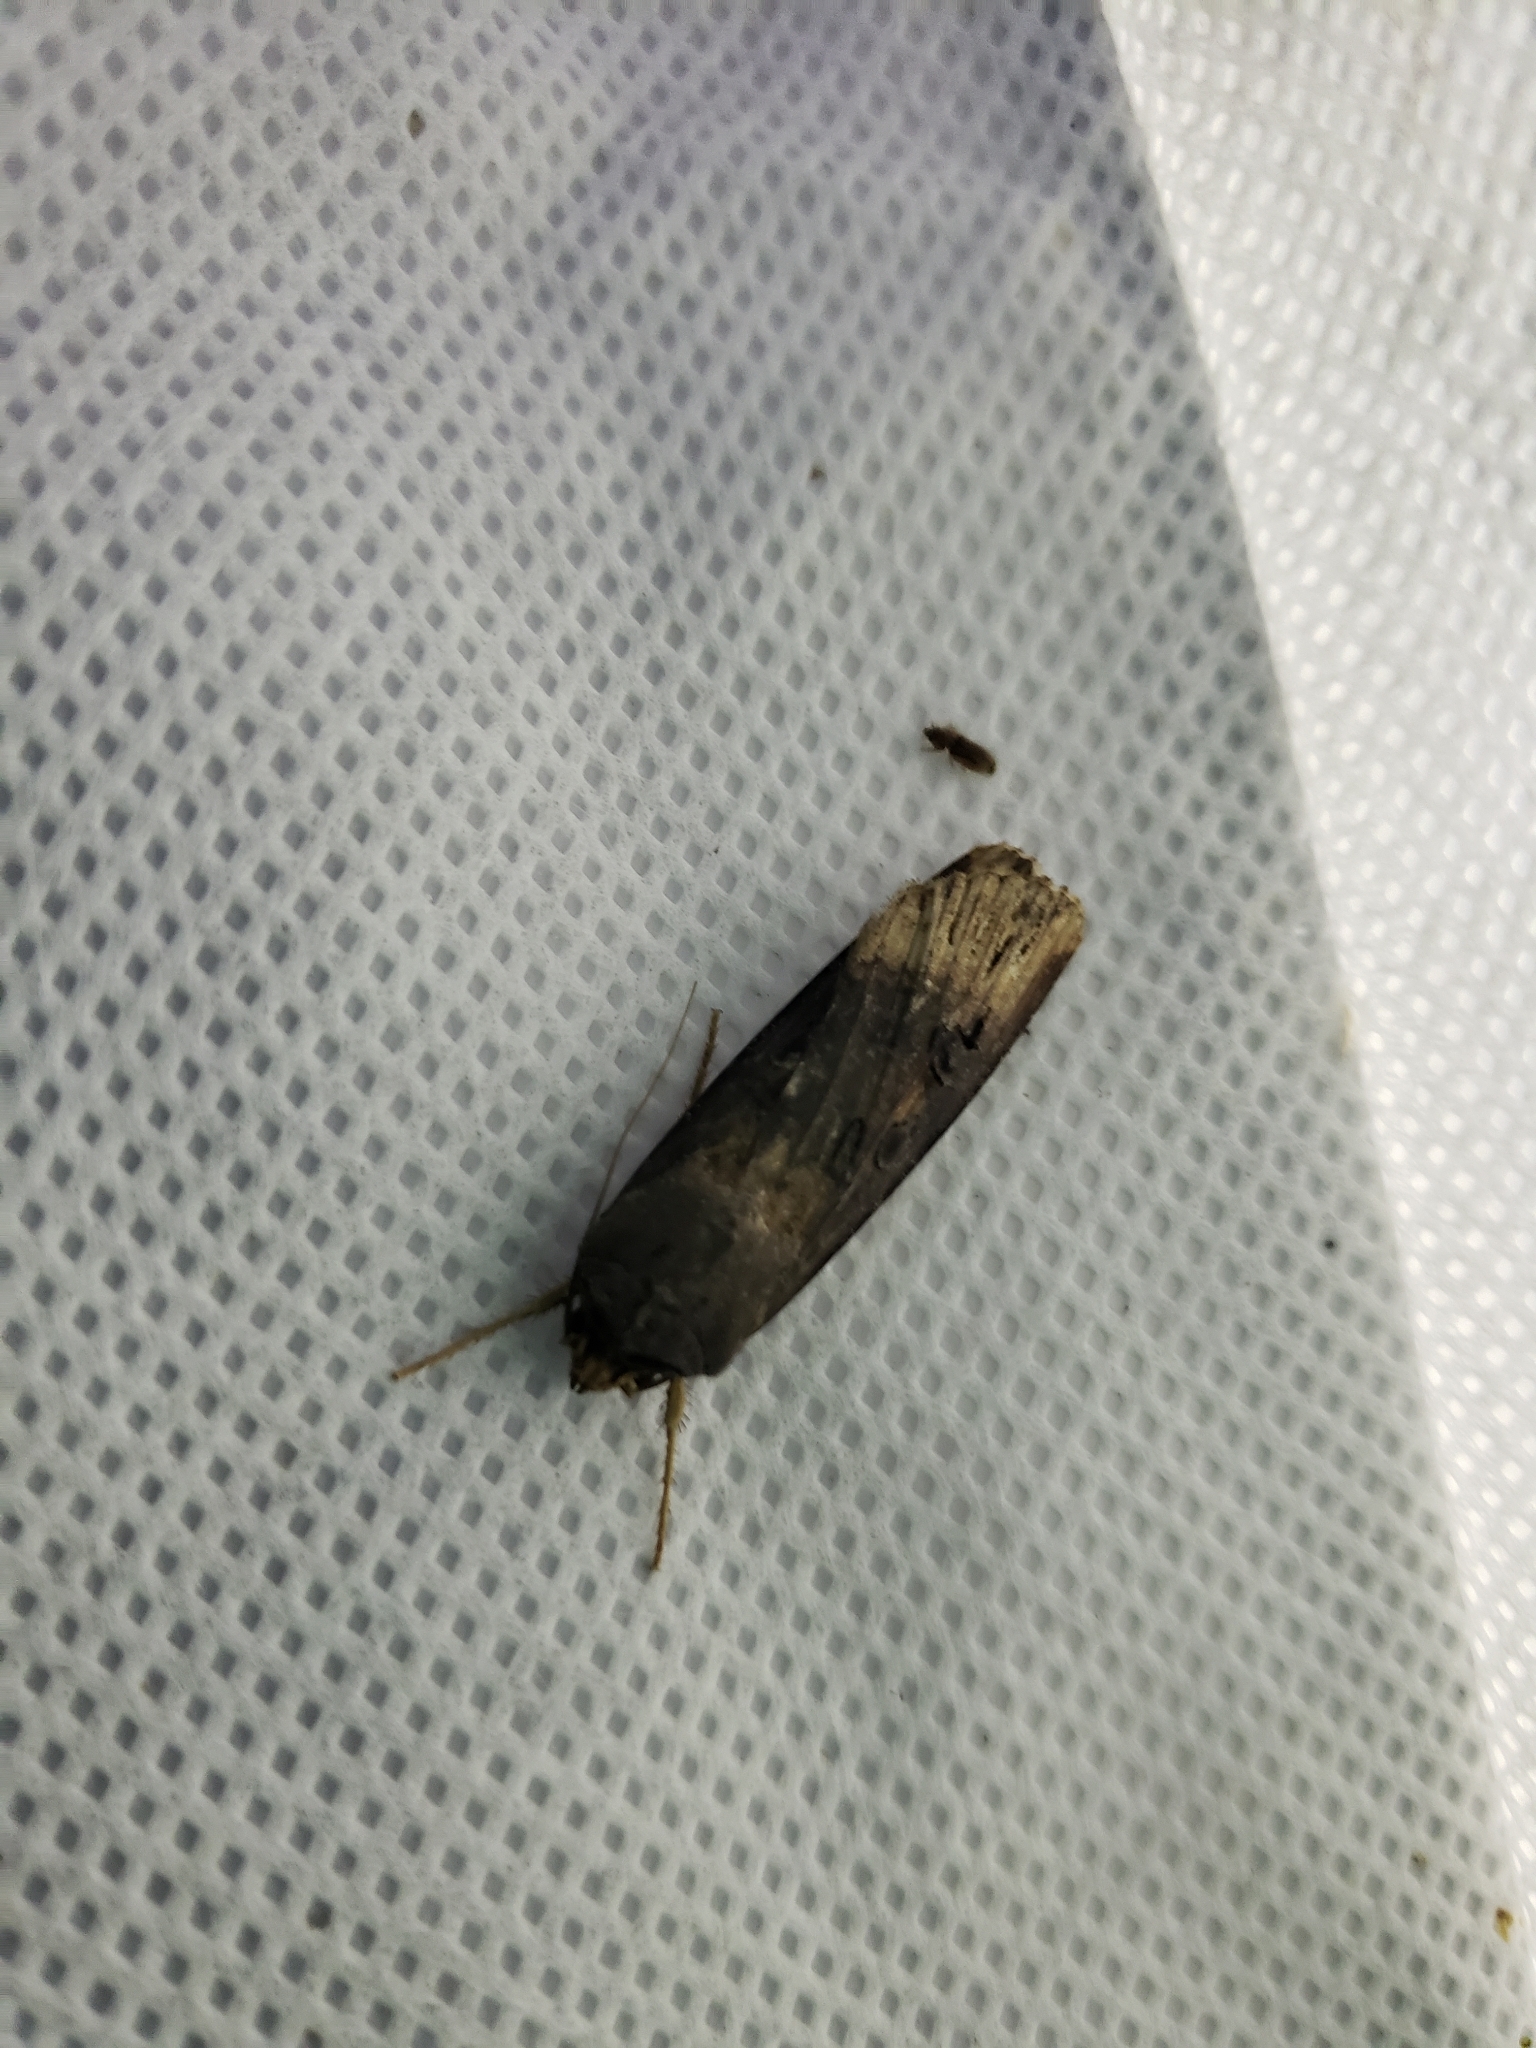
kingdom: Animalia
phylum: Arthropoda
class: Insecta
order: Lepidoptera
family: Noctuidae
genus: Agrotis
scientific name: Agrotis ipsilon
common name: Dark sword-grass
